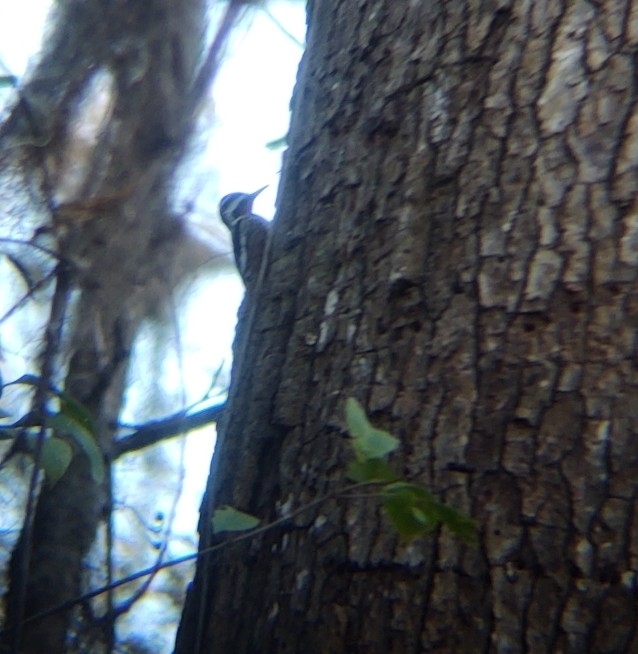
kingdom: Animalia
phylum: Chordata
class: Aves
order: Piciformes
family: Picidae
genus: Sphyrapicus
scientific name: Sphyrapicus varius
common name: Yellow-bellied sapsucker
